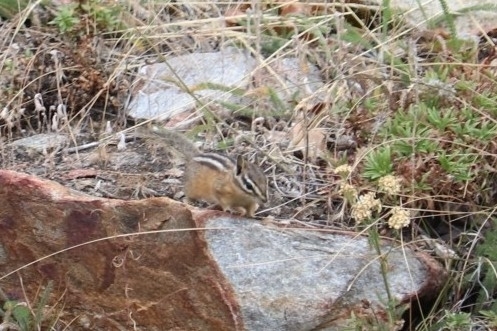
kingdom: Animalia
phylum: Chordata
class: Mammalia
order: Rodentia
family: Sciuridae
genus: Tamias
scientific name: Tamias amoenus
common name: Yellow-pine chipmunk
